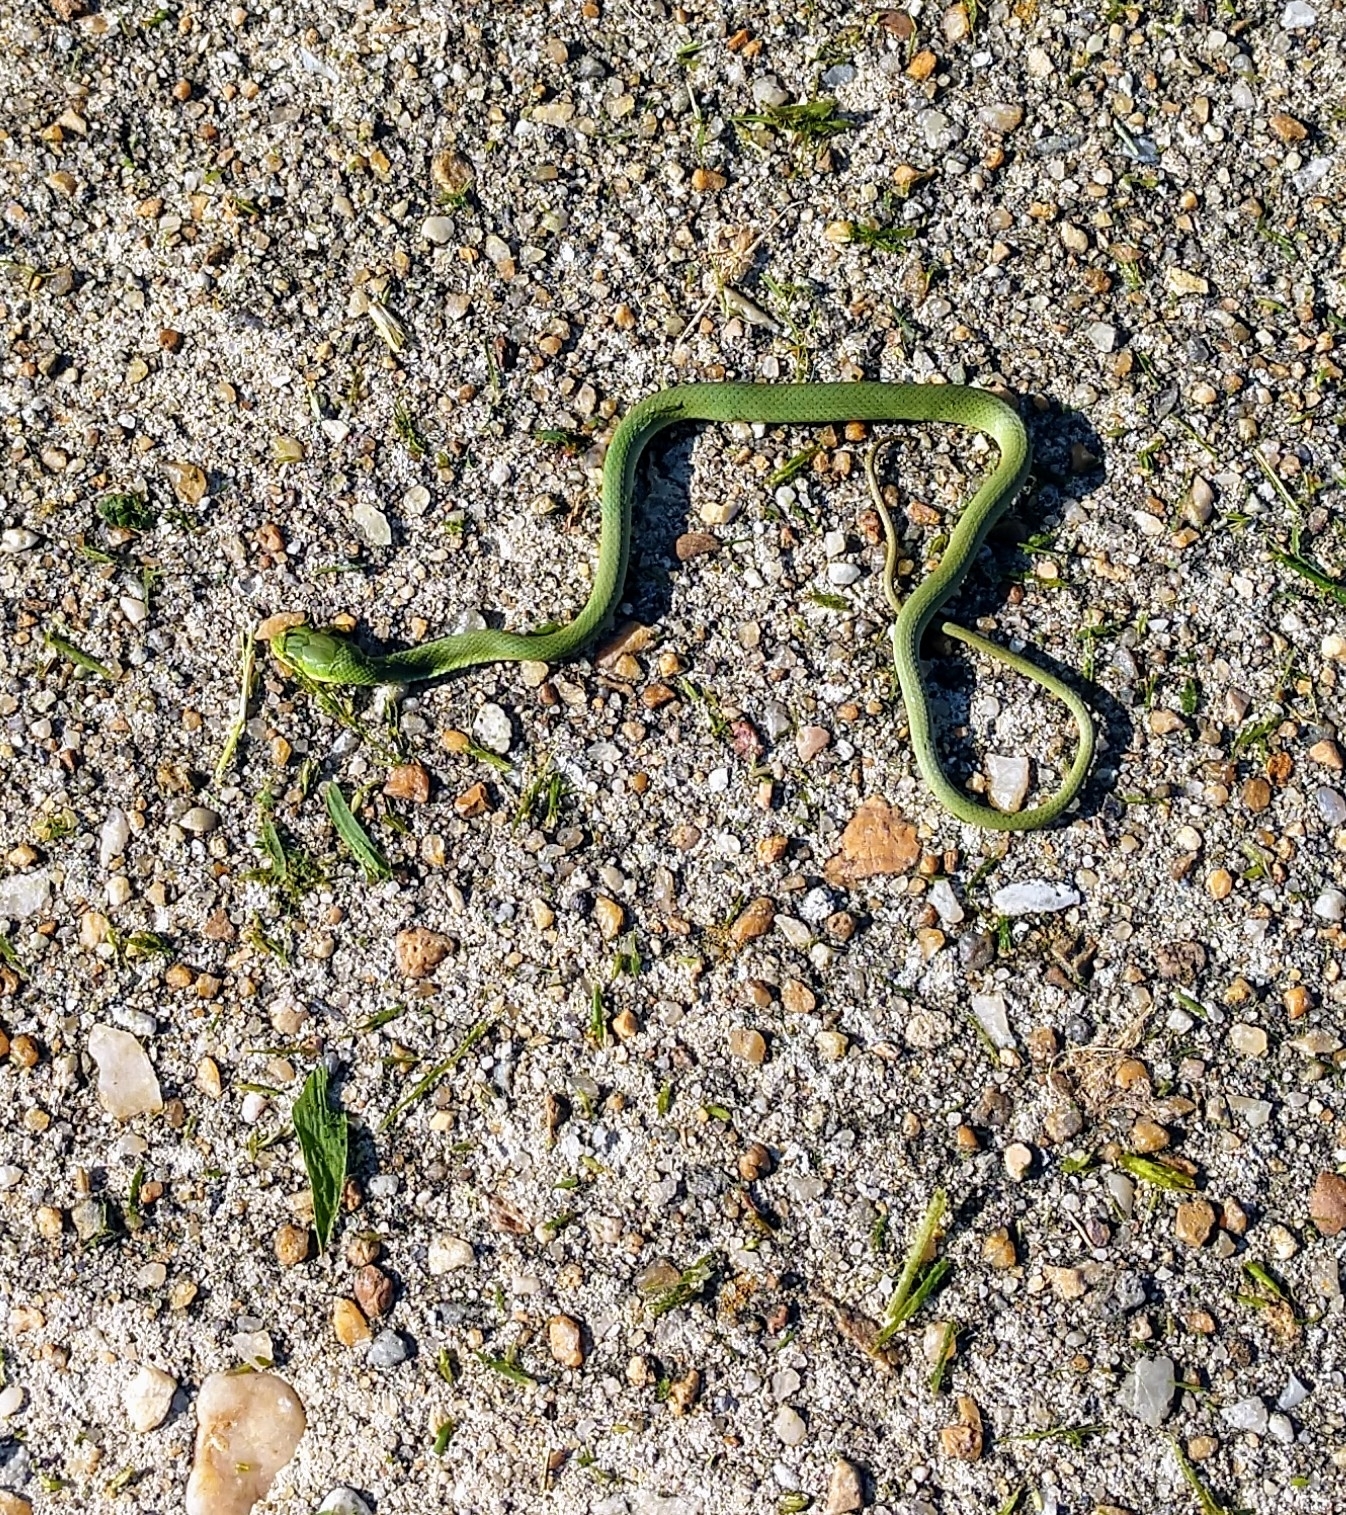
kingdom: Animalia
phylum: Chordata
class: Squamata
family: Colubridae
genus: Opheodrys
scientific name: Opheodrys aestivus
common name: Rough greensnake
